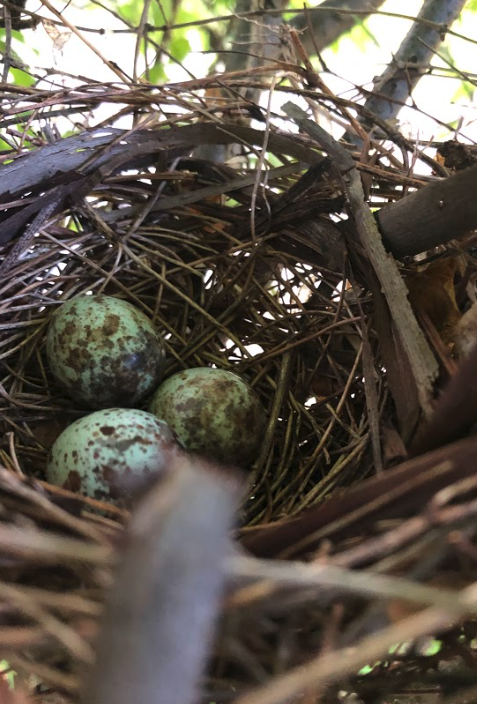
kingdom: Animalia
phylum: Chordata
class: Aves
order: Passeriformes
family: Cardinalidae
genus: Cardinalis
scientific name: Cardinalis cardinalis
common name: Northern cardinal
